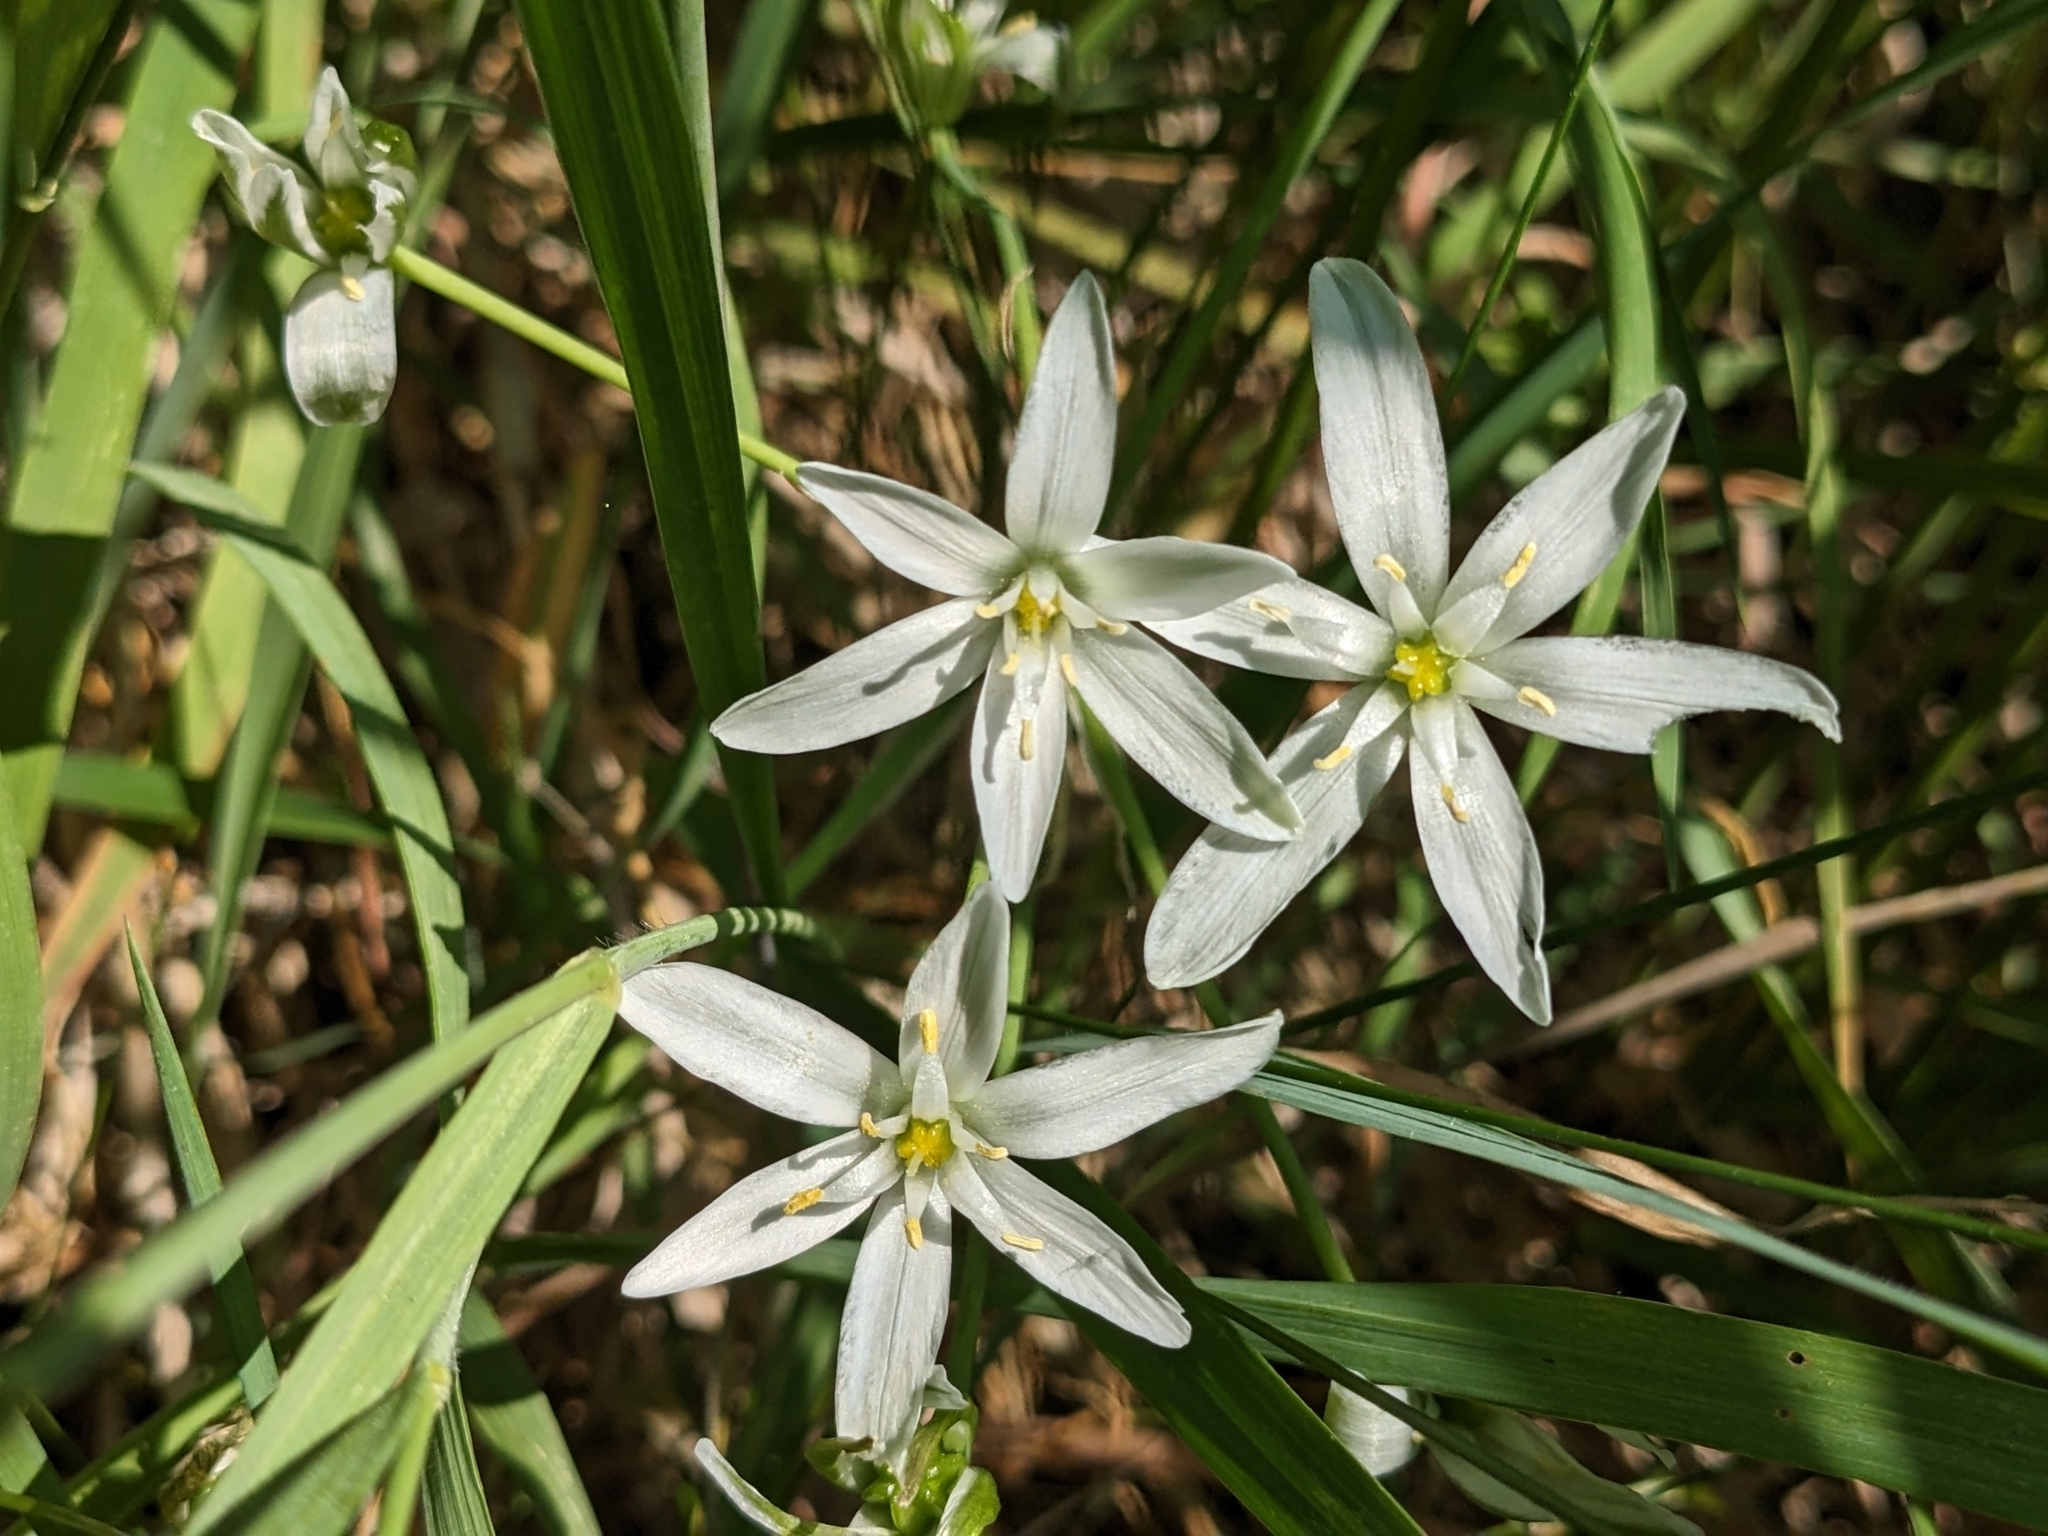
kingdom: Plantae
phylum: Tracheophyta
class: Liliopsida
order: Asparagales
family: Asparagaceae
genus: Ornithogalum
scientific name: Ornithogalum umbellatum
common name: Garden star-of-bethlehem
